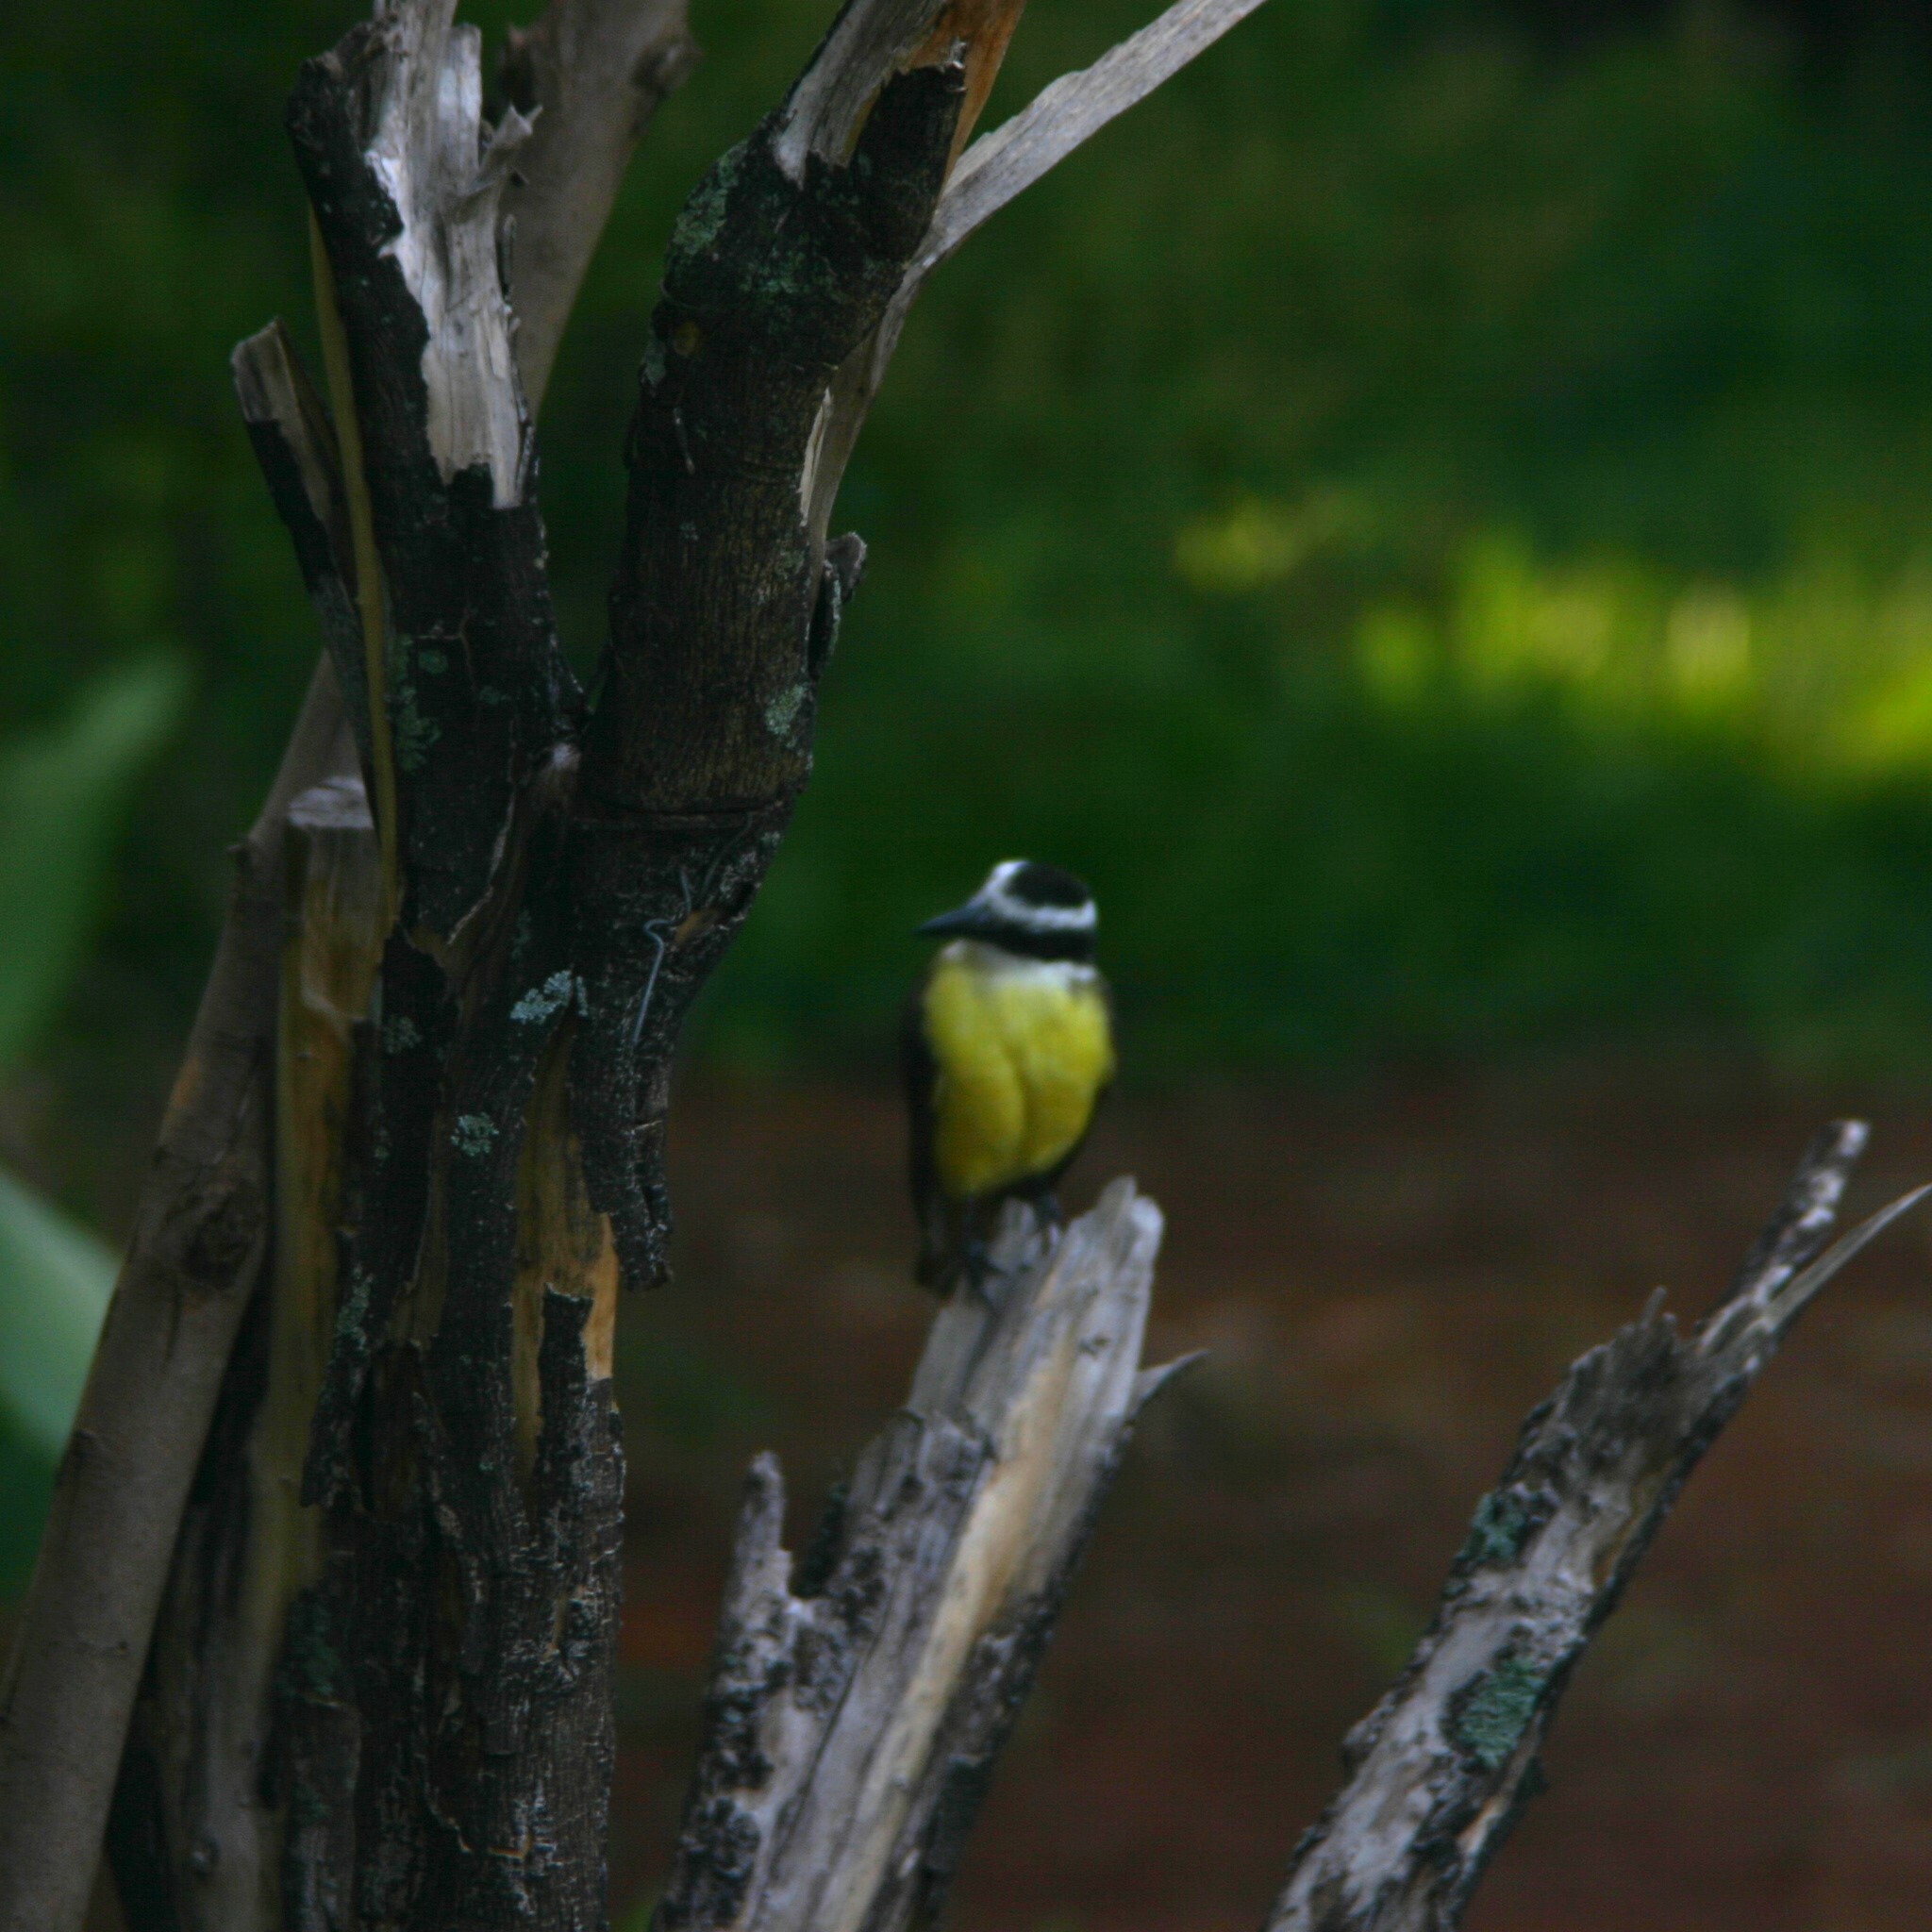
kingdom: Animalia
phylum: Chordata
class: Aves
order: Passeriformes
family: Tyrannidae
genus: Pitangus
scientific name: Pitangus sulphuratus
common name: Great kiskadee
